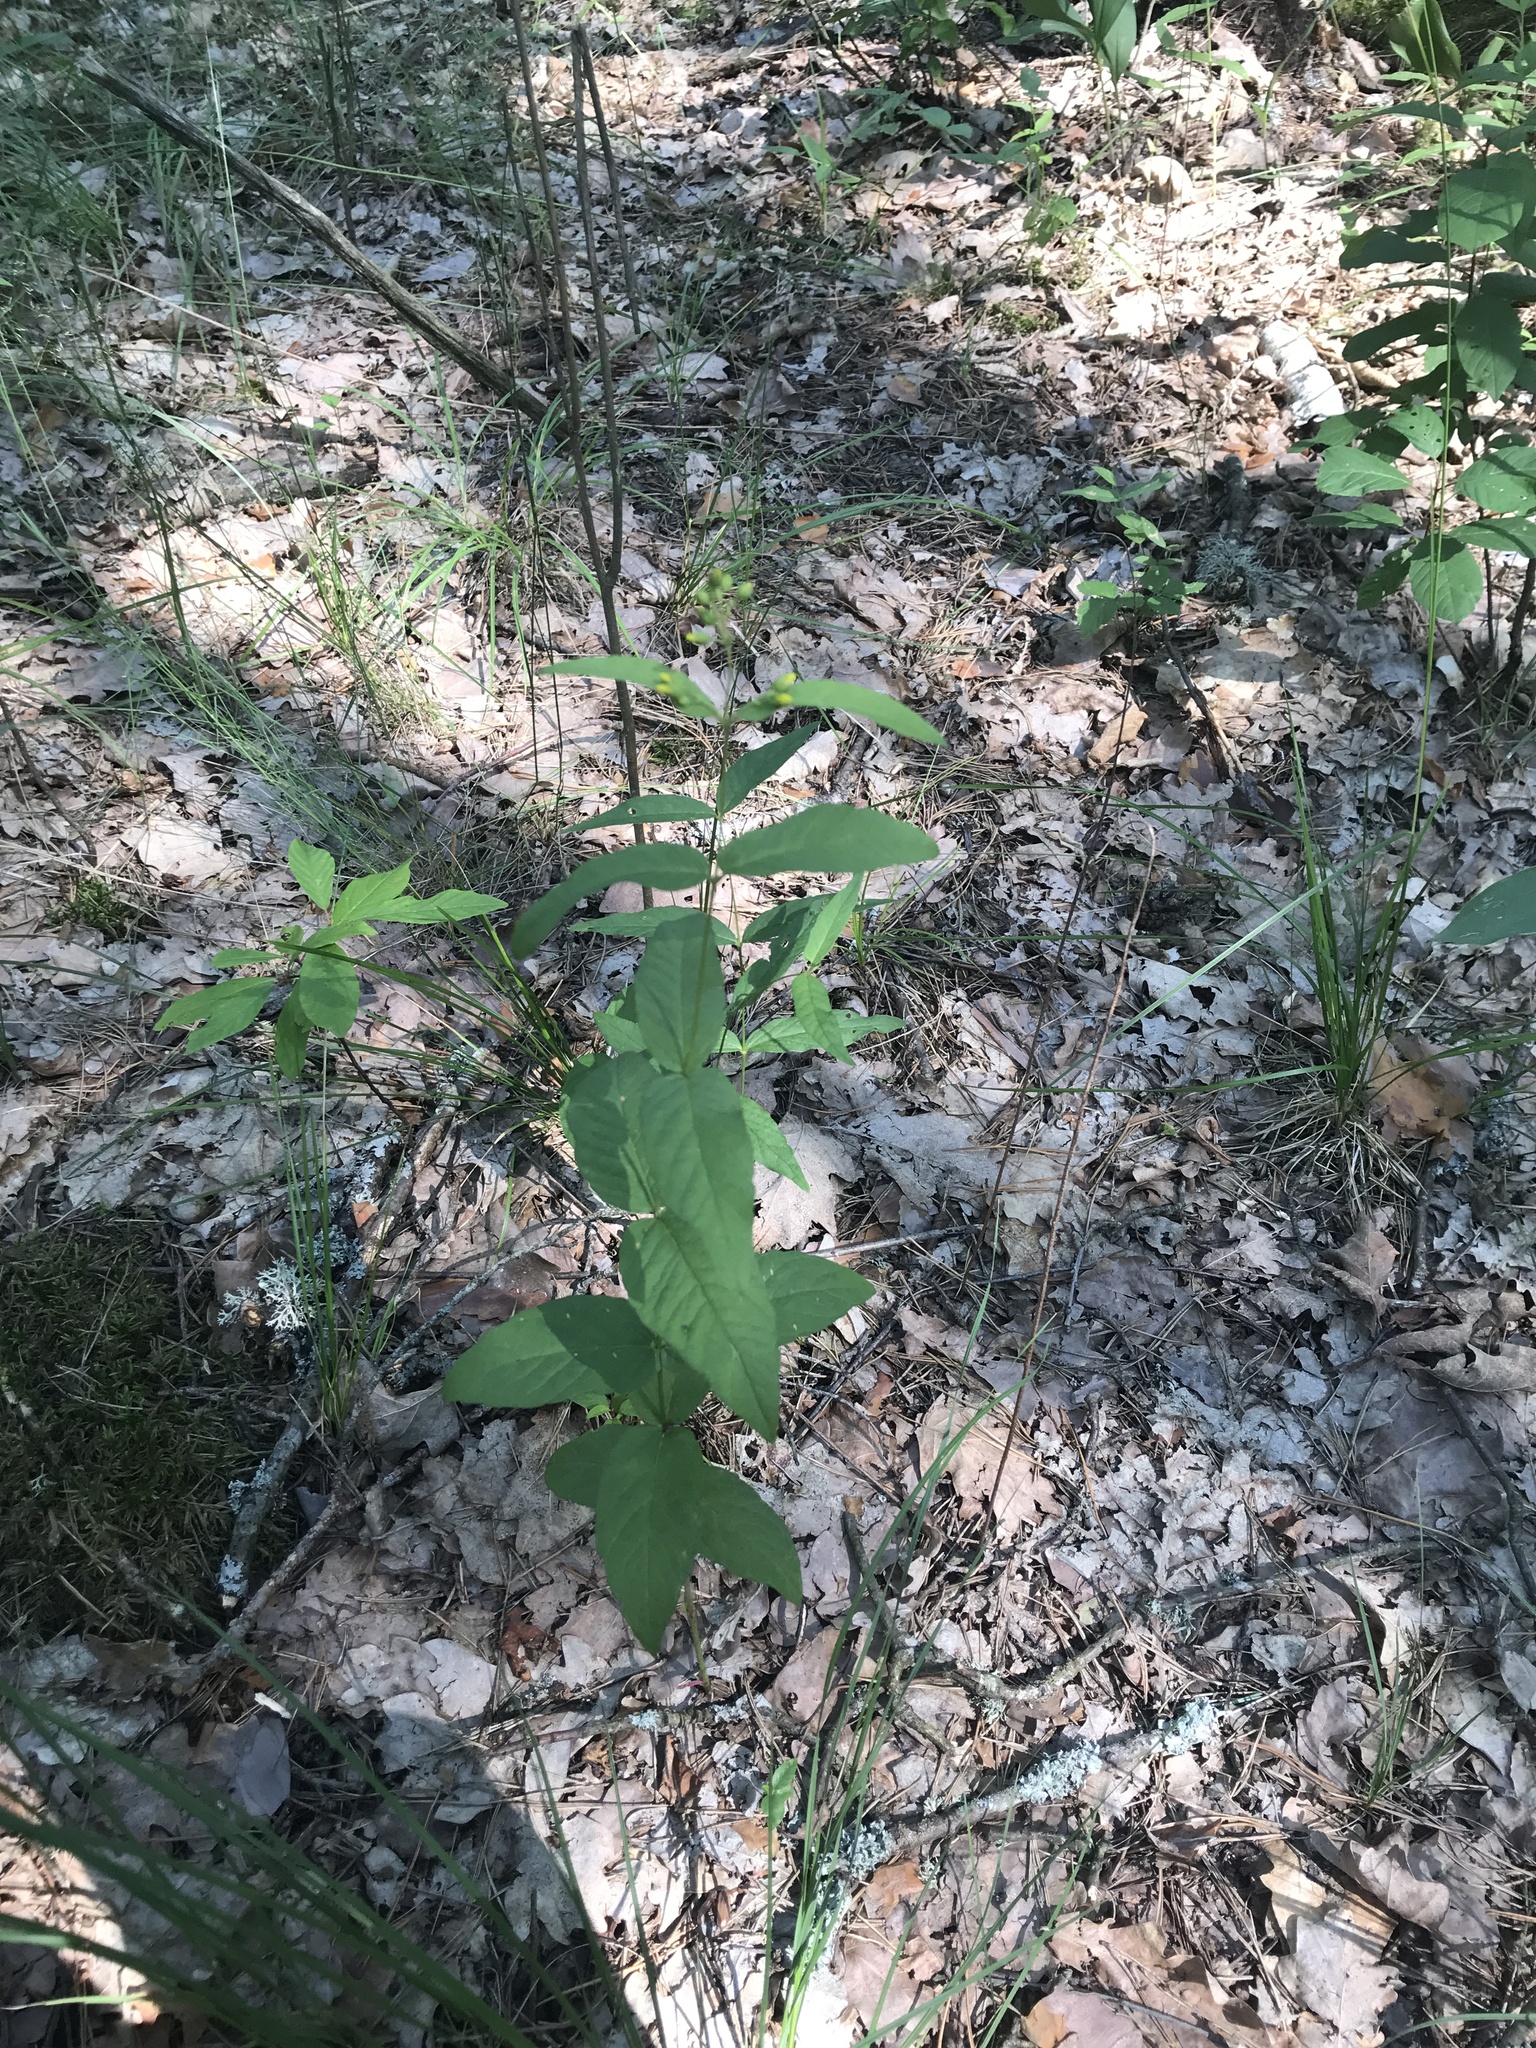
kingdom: Plantae
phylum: Tracheophyta
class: Magnoliopsida
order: Ericales
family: Primulaceae
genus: Lysimachia
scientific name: Lysimachia vulgaris
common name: Yellow loosestrife
